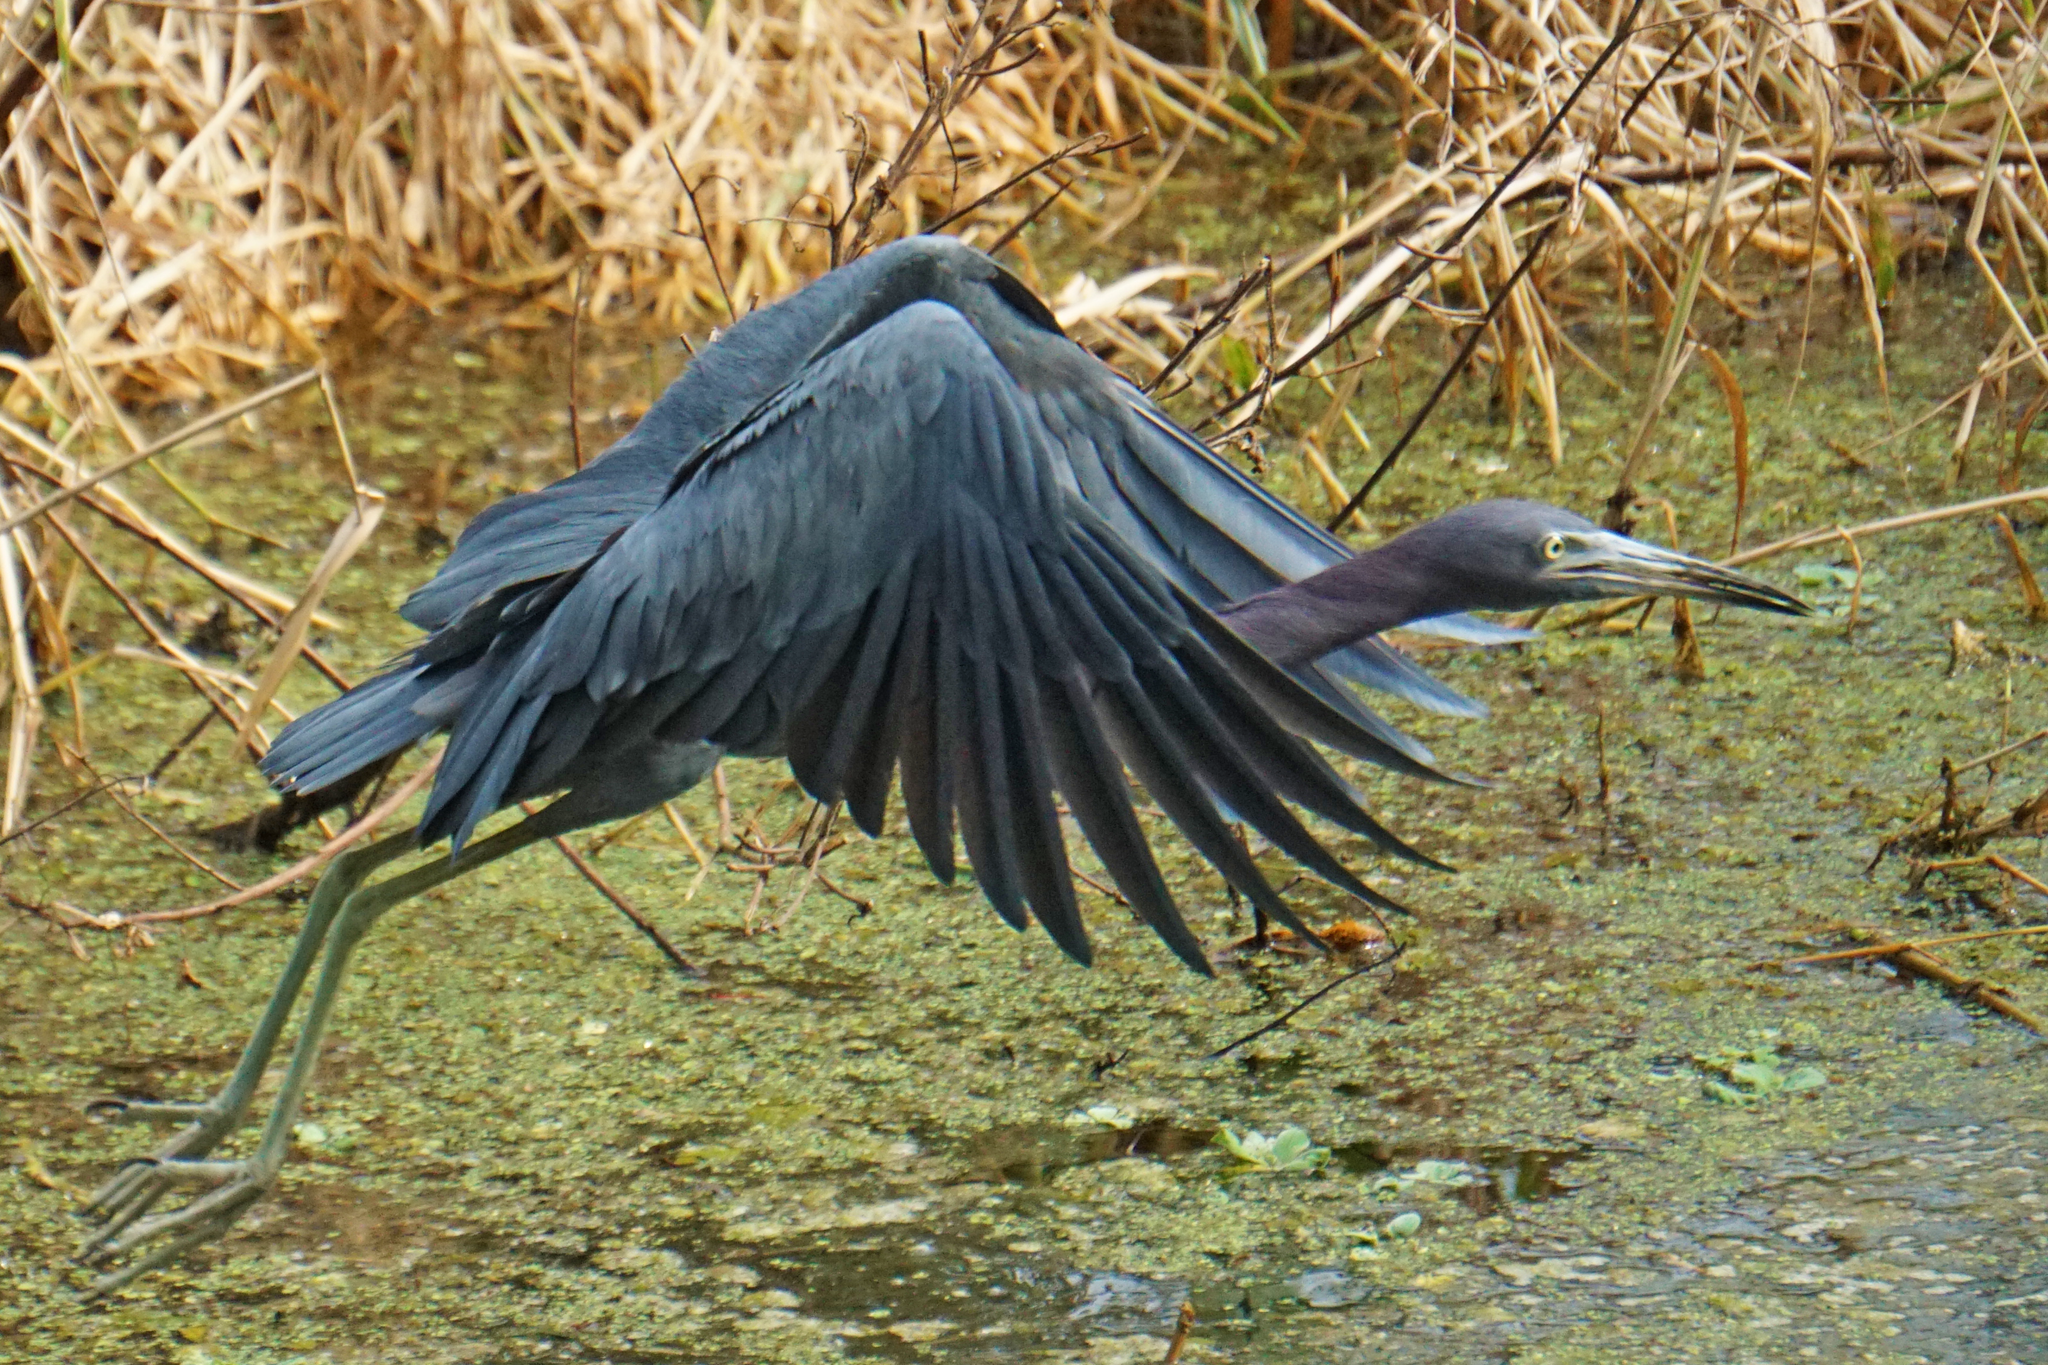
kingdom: Animalia
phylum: Chordata
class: Aves
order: Pelecaniformes
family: Ardeidae
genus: Egretta
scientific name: Egretta caerulea
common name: Little blue heron
